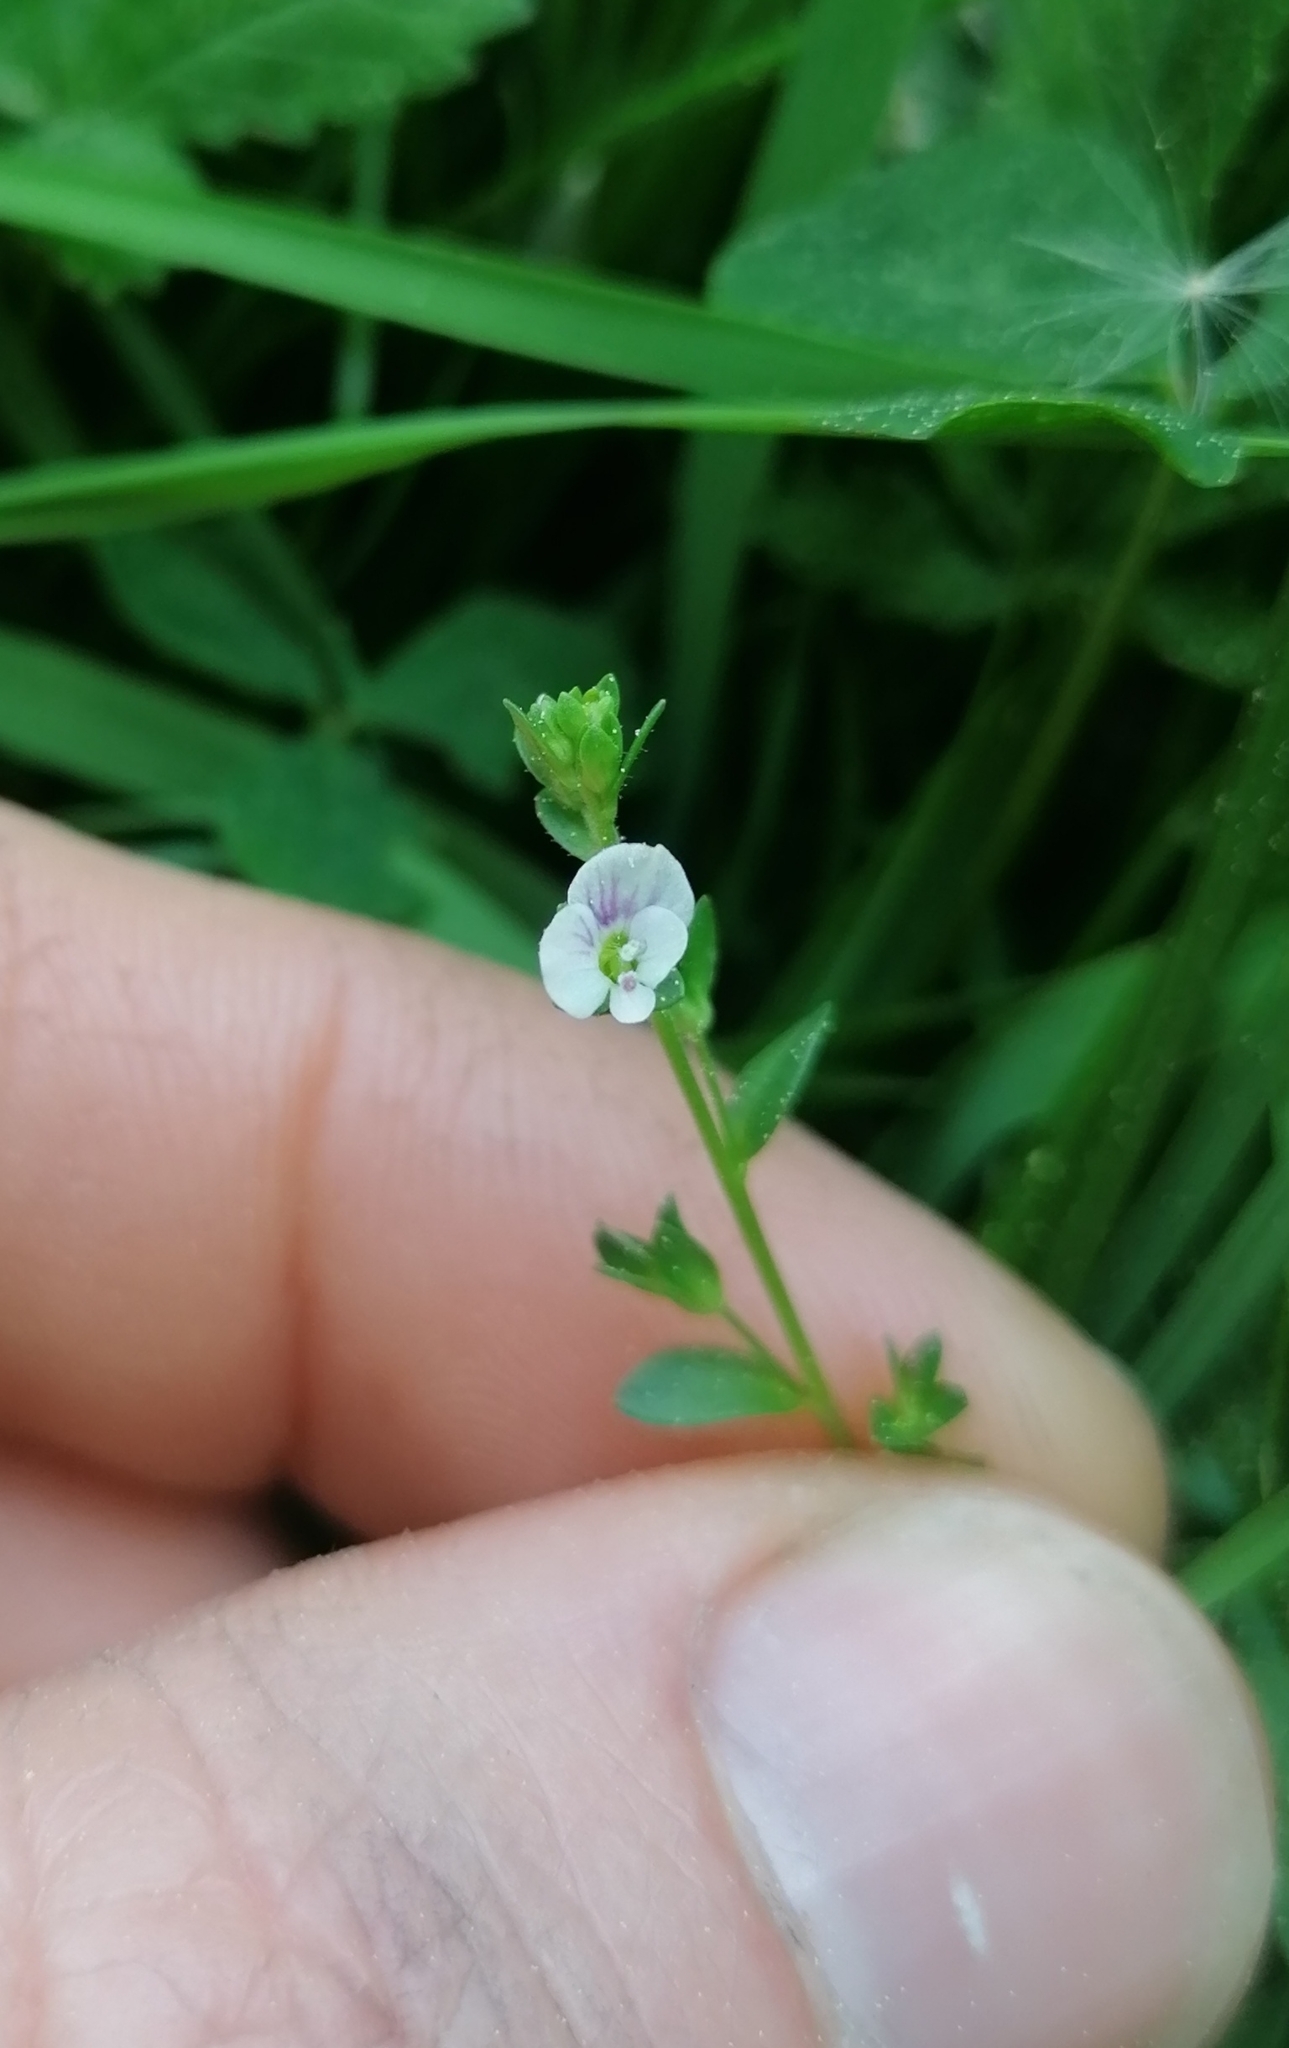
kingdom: Plantae
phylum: Tracheophyta
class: Magnoliopsida
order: Lamiales
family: Plantaginaceae
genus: Veronica
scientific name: Veronica serpyllifolia
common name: Thyme-leaved speedwell
